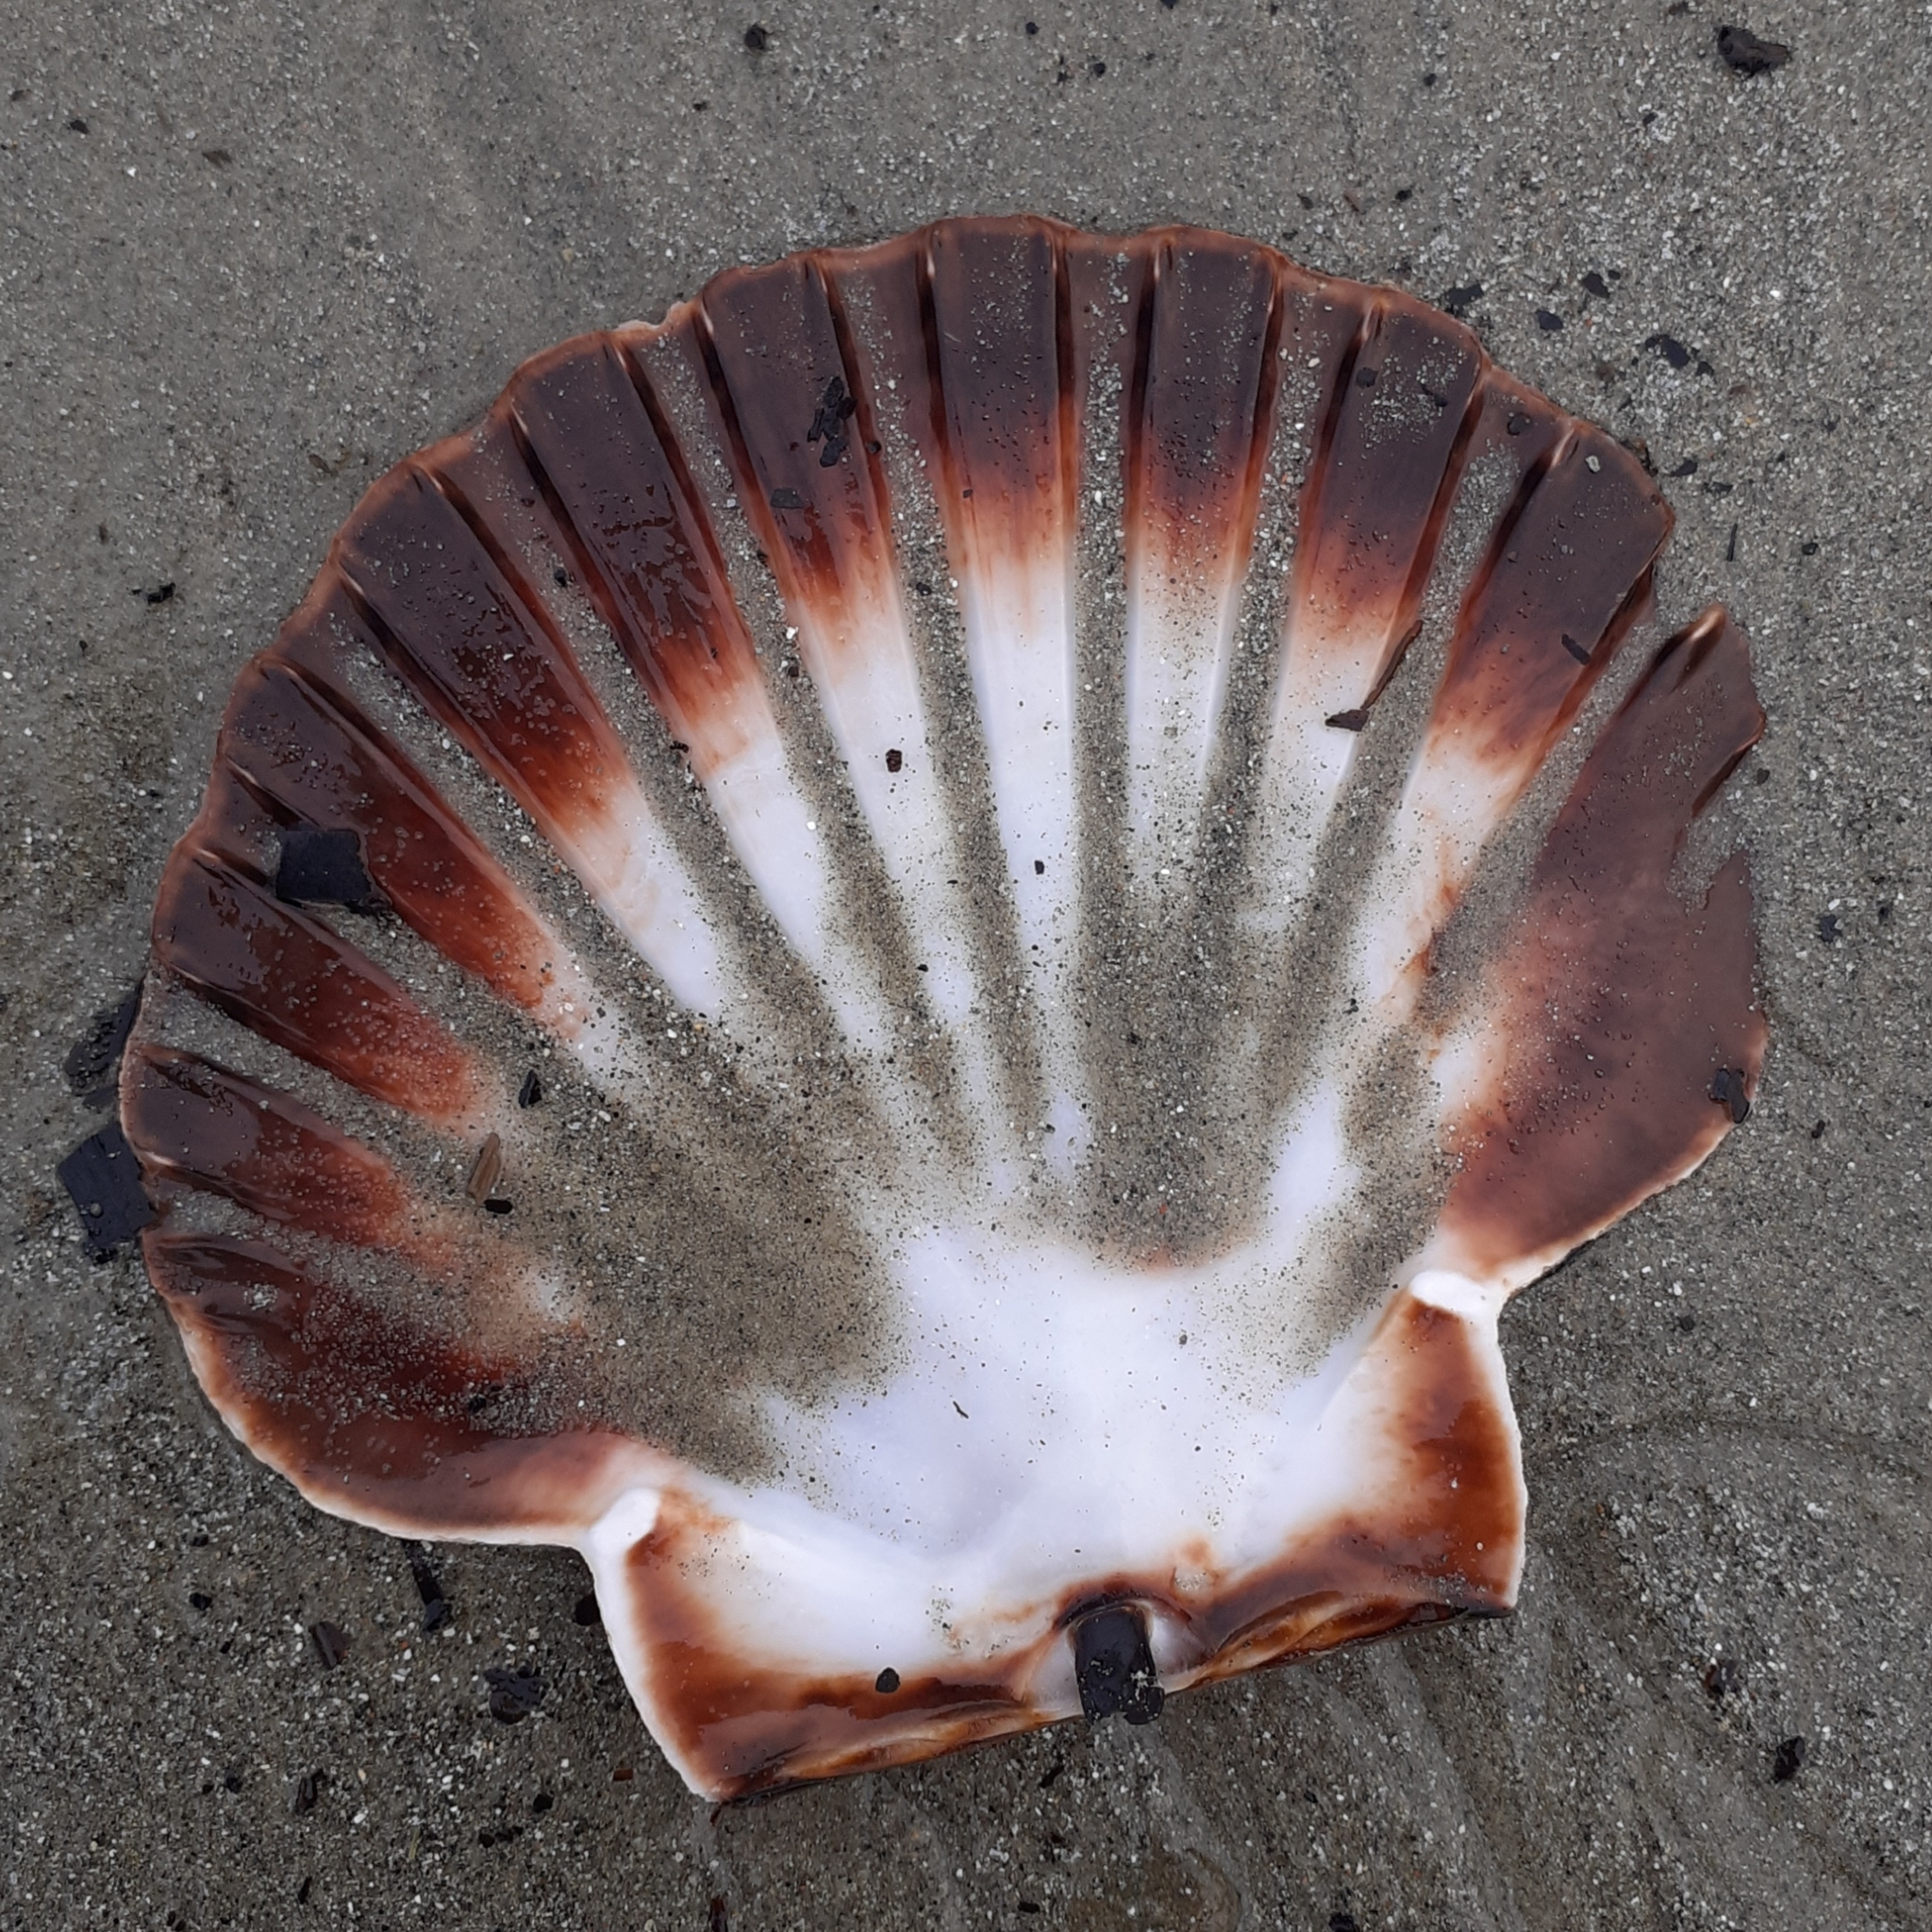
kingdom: Animalia
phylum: Mollusca
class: Bivalvia
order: Pectinida
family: Pectinidae
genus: Pecten
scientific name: Pecten maximus
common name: Great scallop
